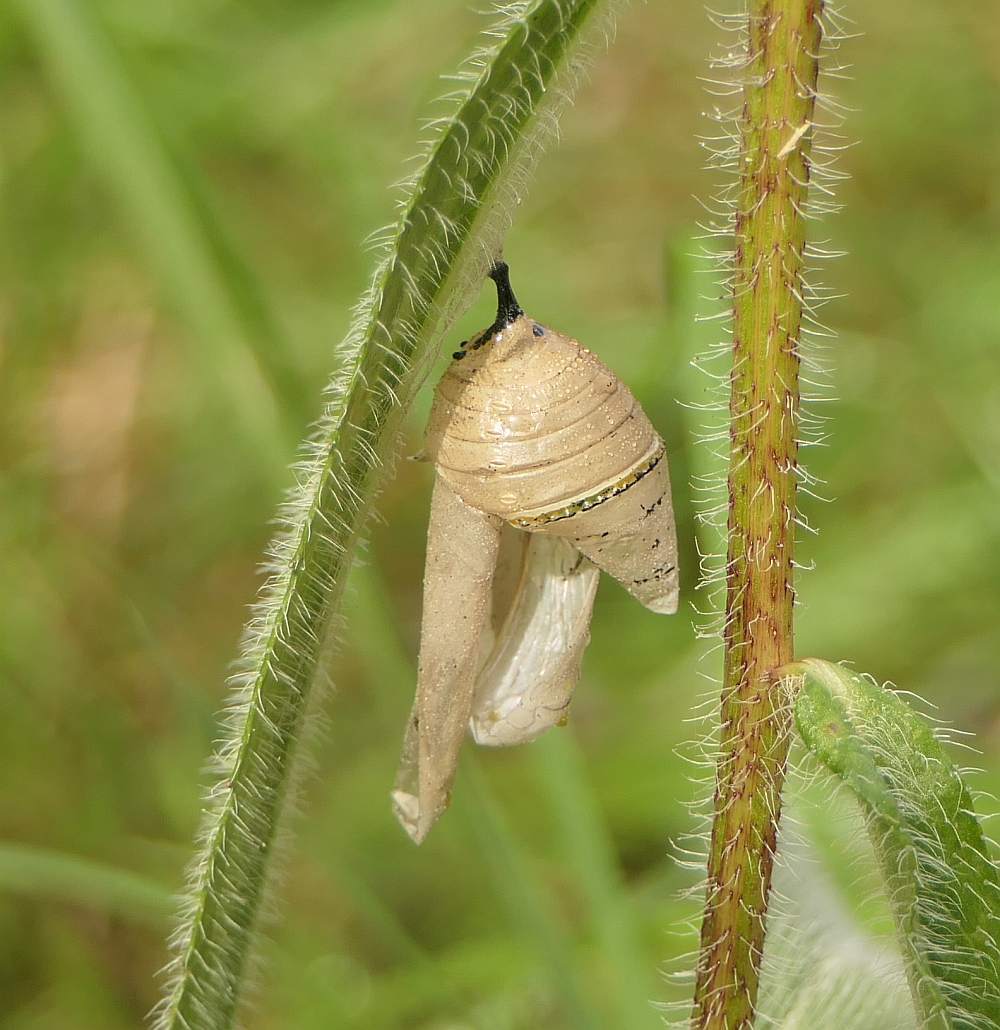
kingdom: Animalia
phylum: Arthropoda
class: Insecta
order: Lepidoptera
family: Nymphalidae
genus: Danaus
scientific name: Danaus plexippus
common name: Monarch
